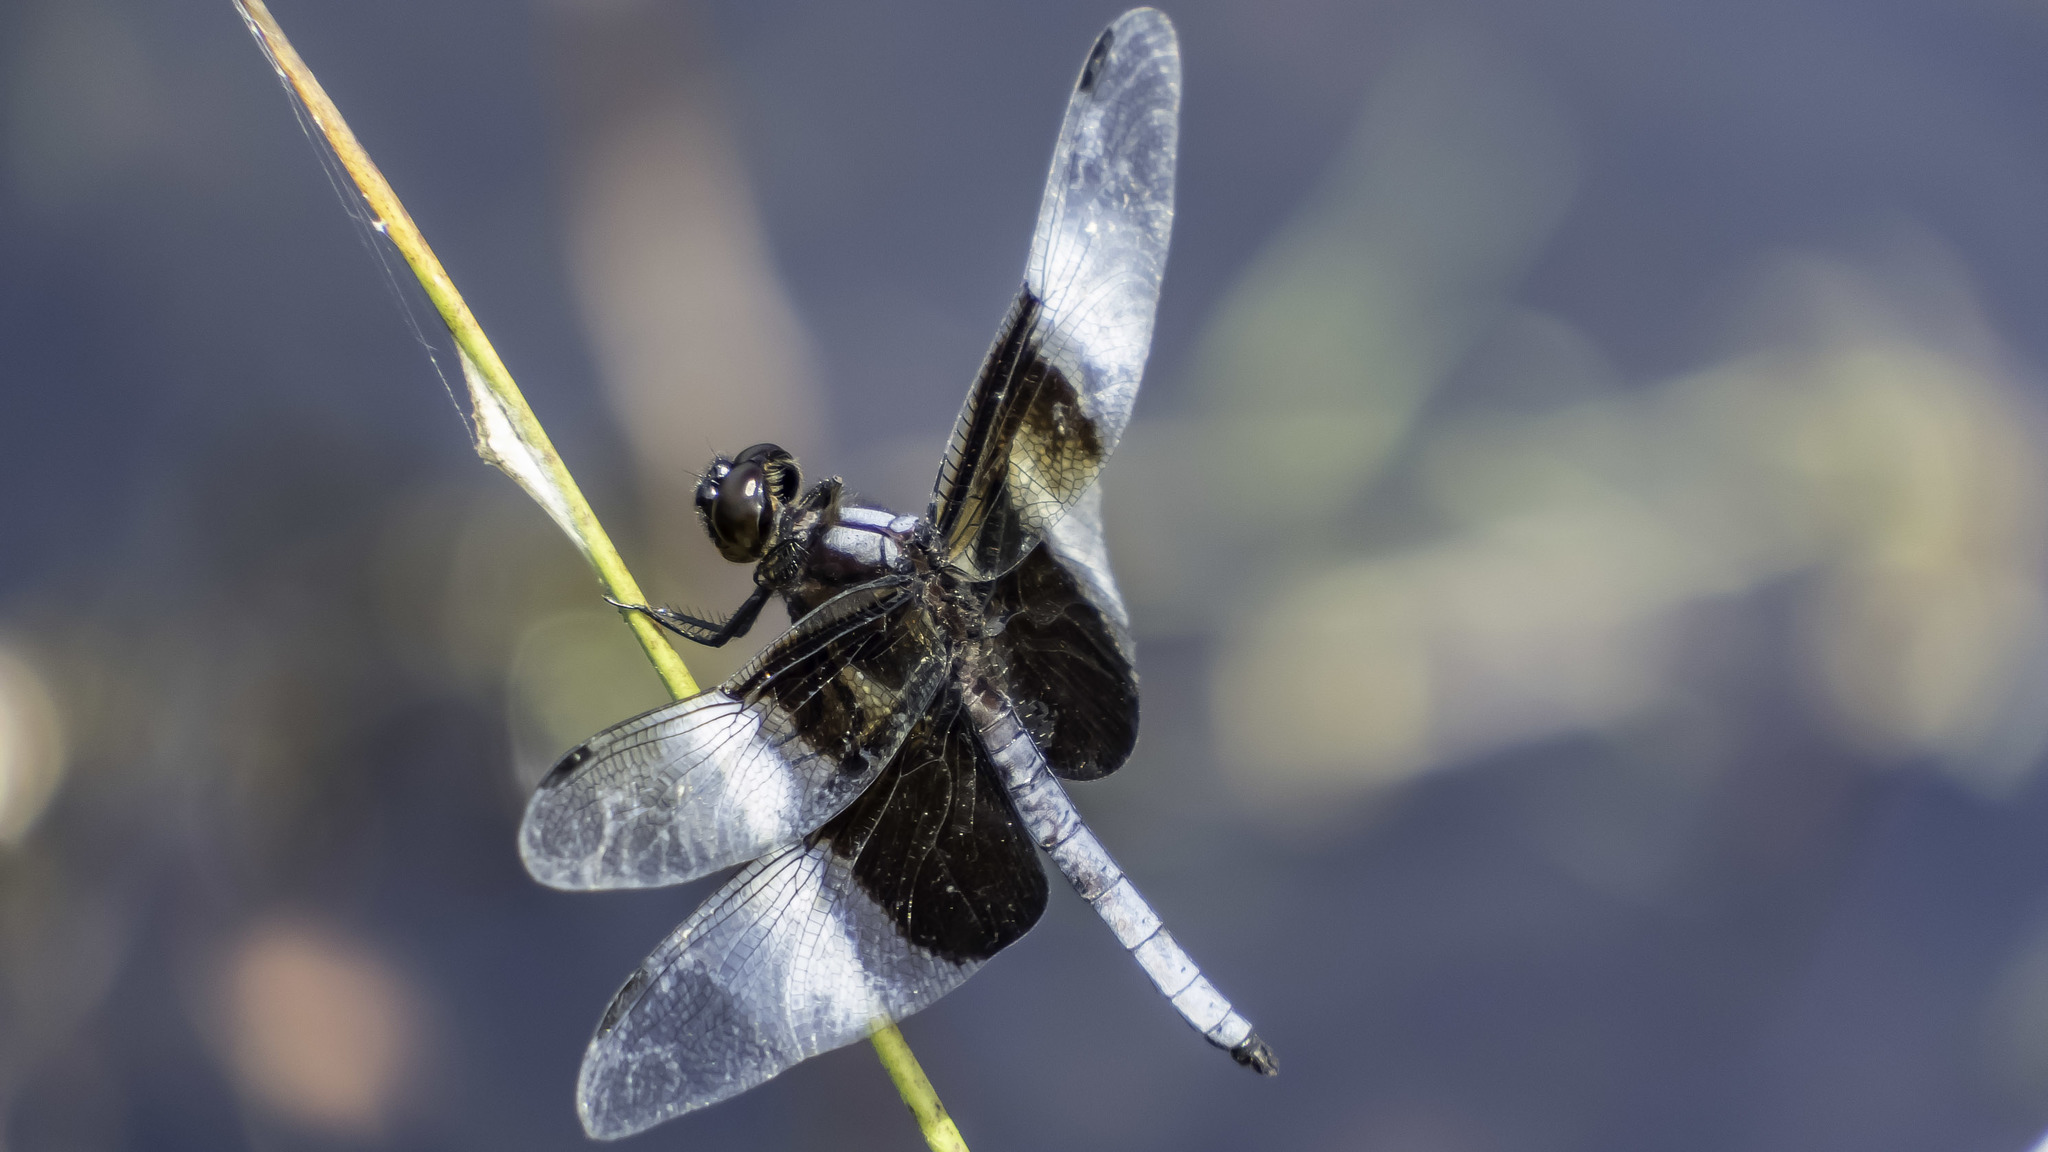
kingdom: Animalia
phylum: Arthropoda
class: Insecta
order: Odonata
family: Libellulidae
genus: Libellula
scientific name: Libellula luctuosa
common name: Widow skimmer
